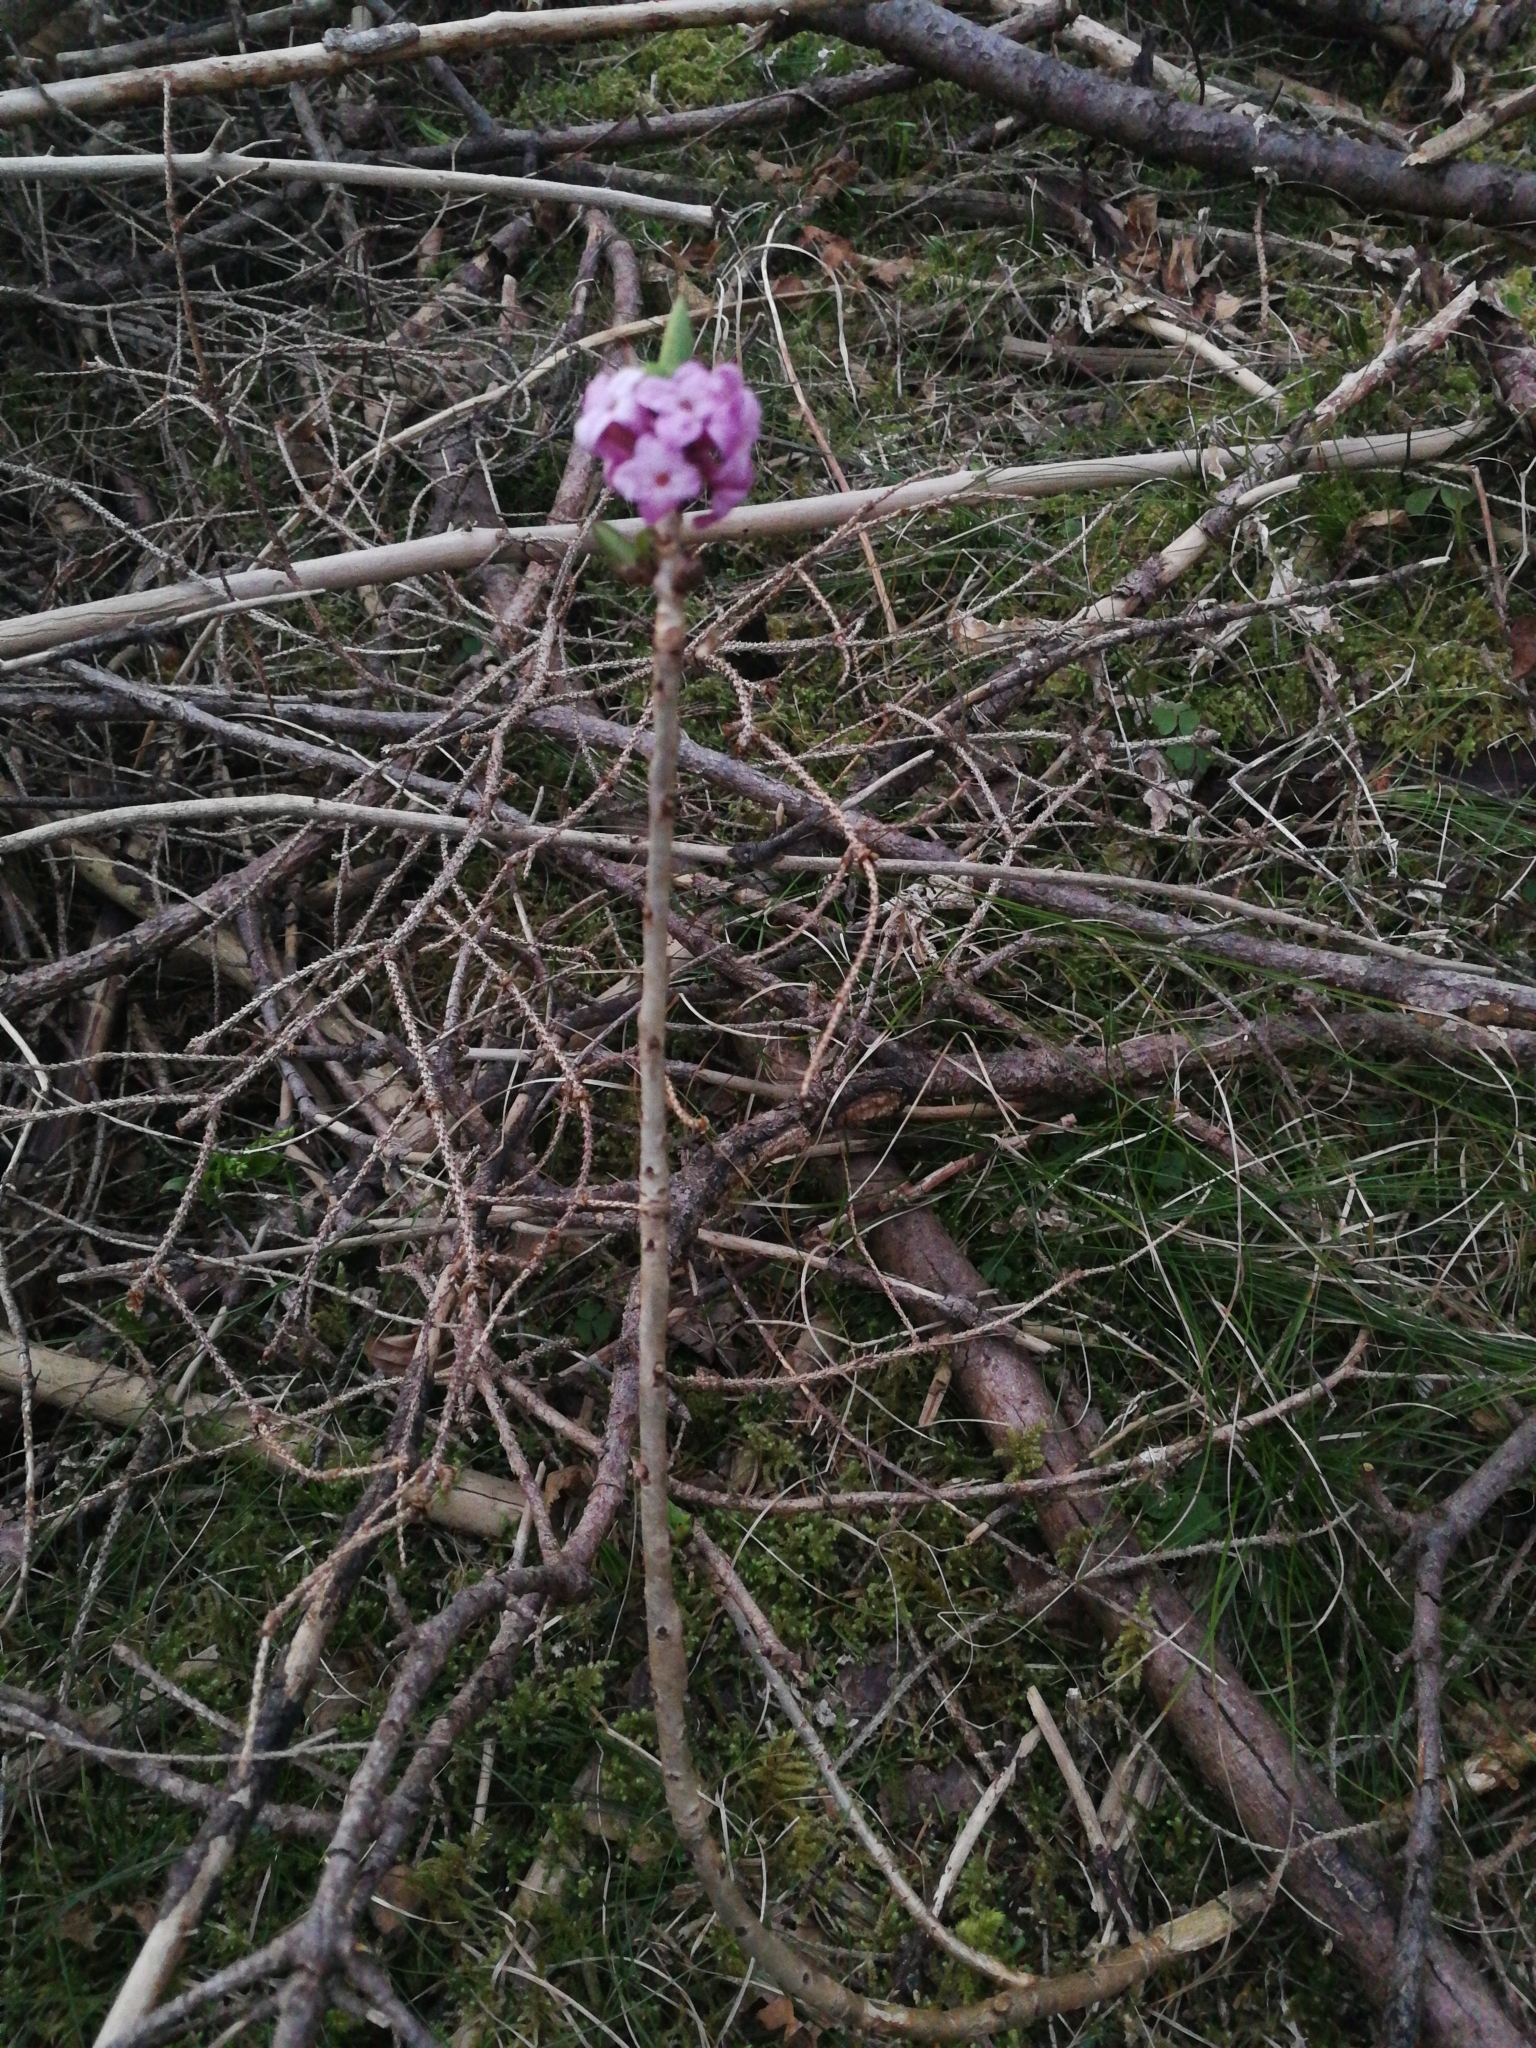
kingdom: Plantae
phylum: Tracheophyta
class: Magnoliopsida
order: Malvales
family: Thymelaeaceae
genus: Daphne
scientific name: Daphne mezereum
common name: Mezereon
